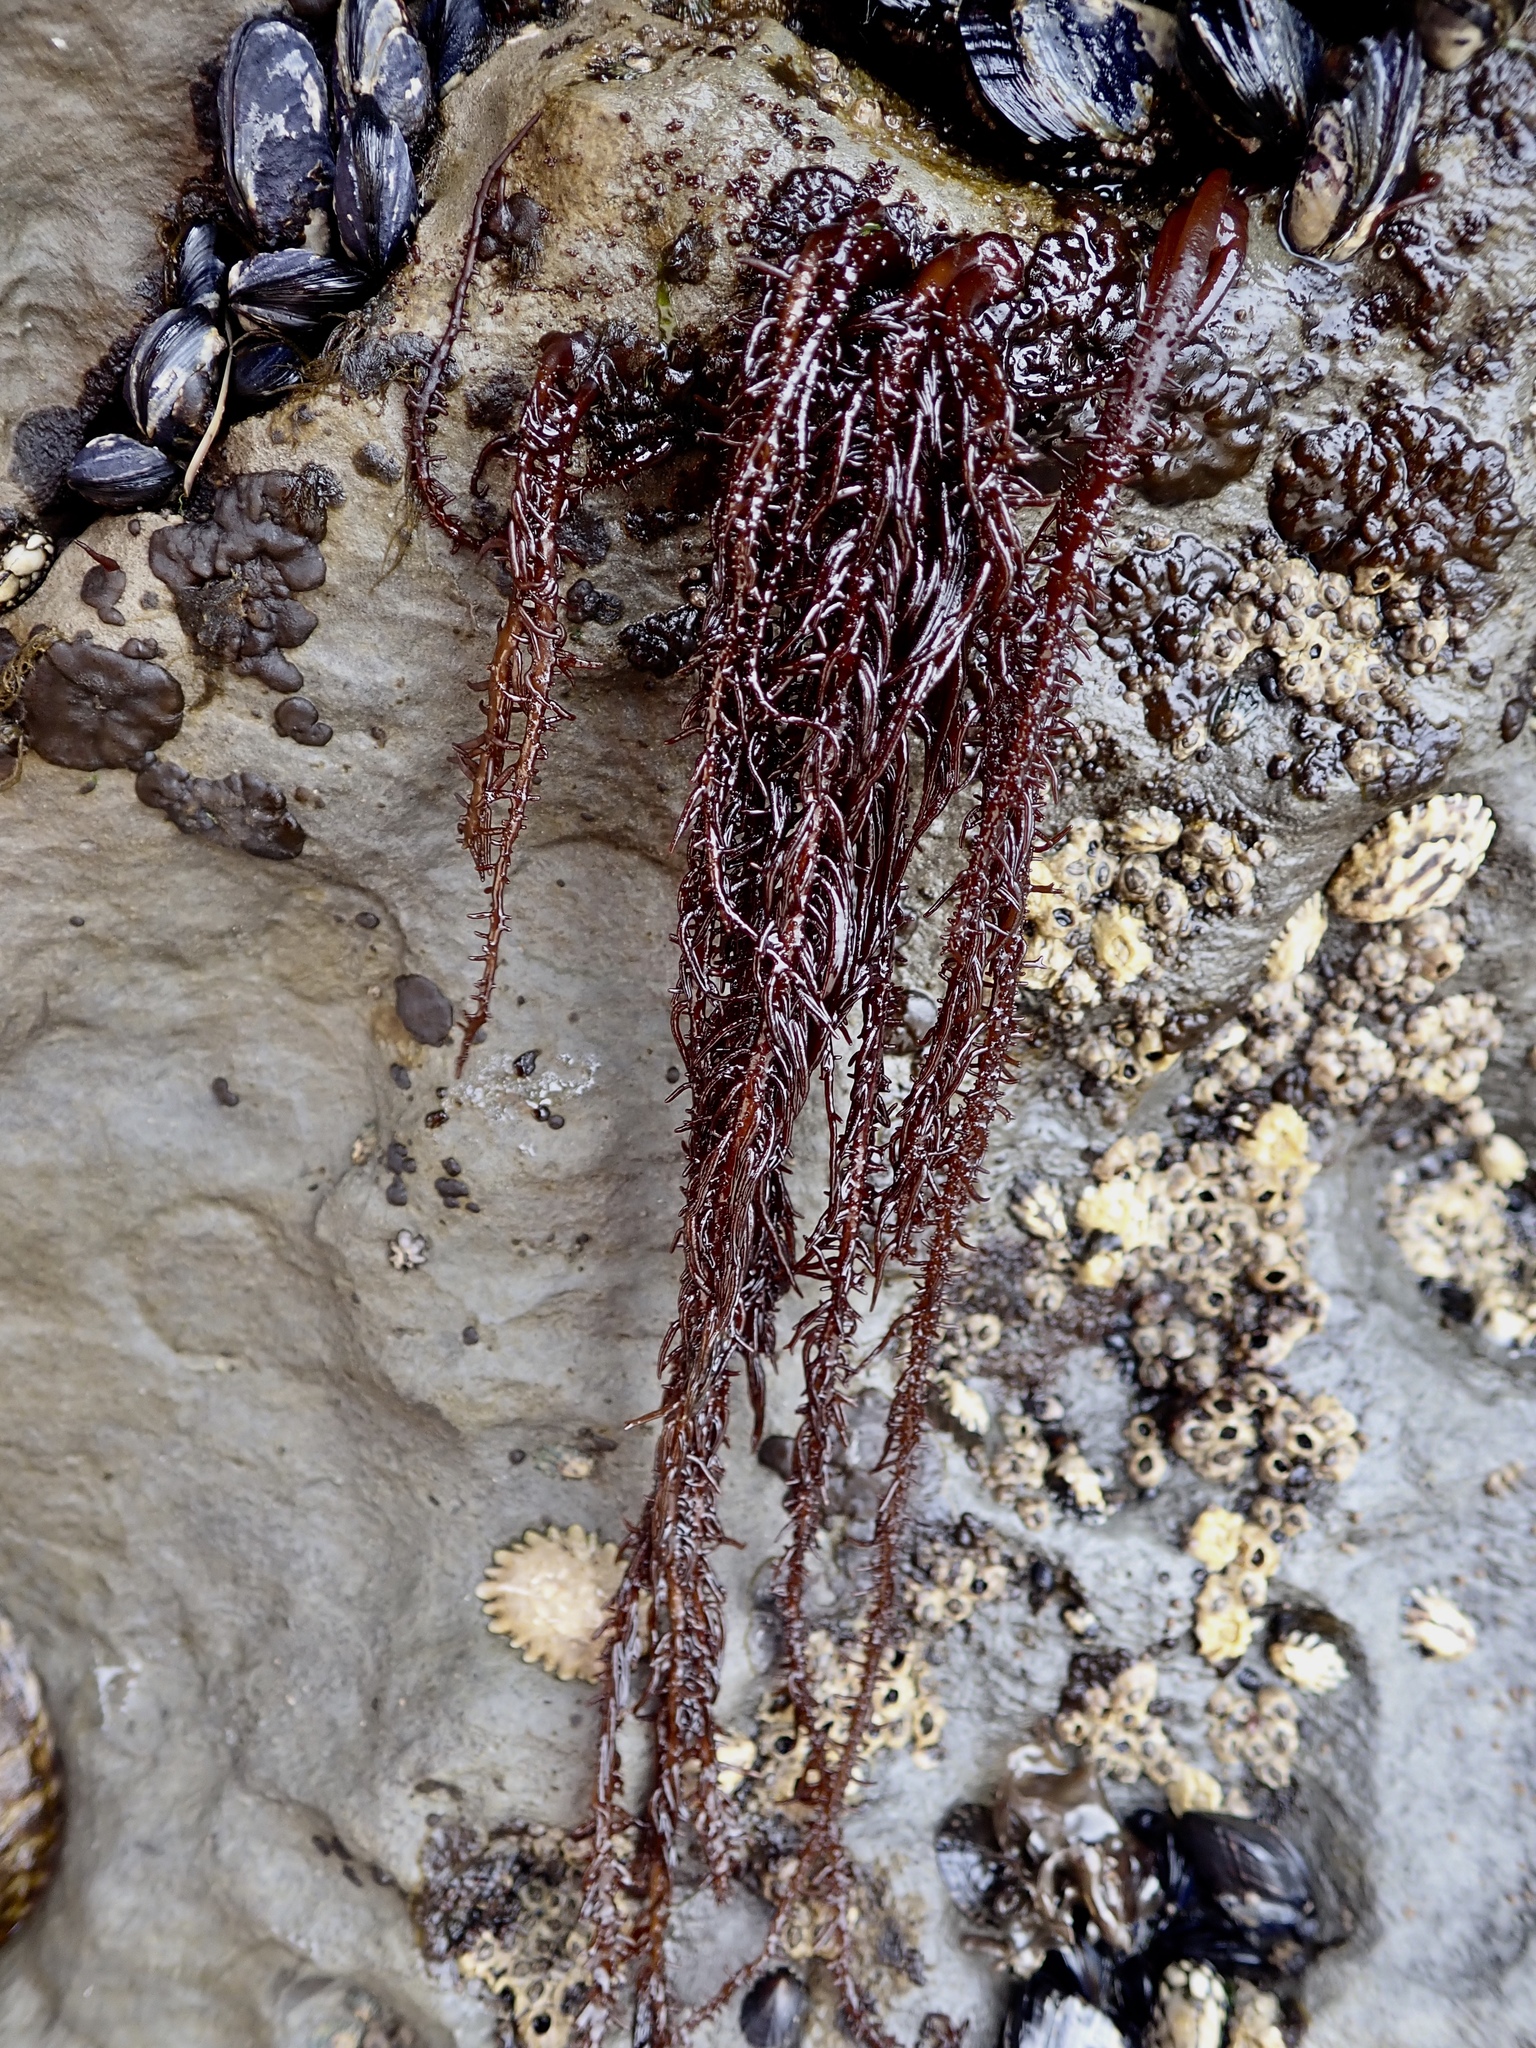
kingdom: Plantae
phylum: Rhodophyta
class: Florideophyceae
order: Nemaliales
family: Liagoraceae
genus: Cumagloia
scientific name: Cumagloia andersonii
